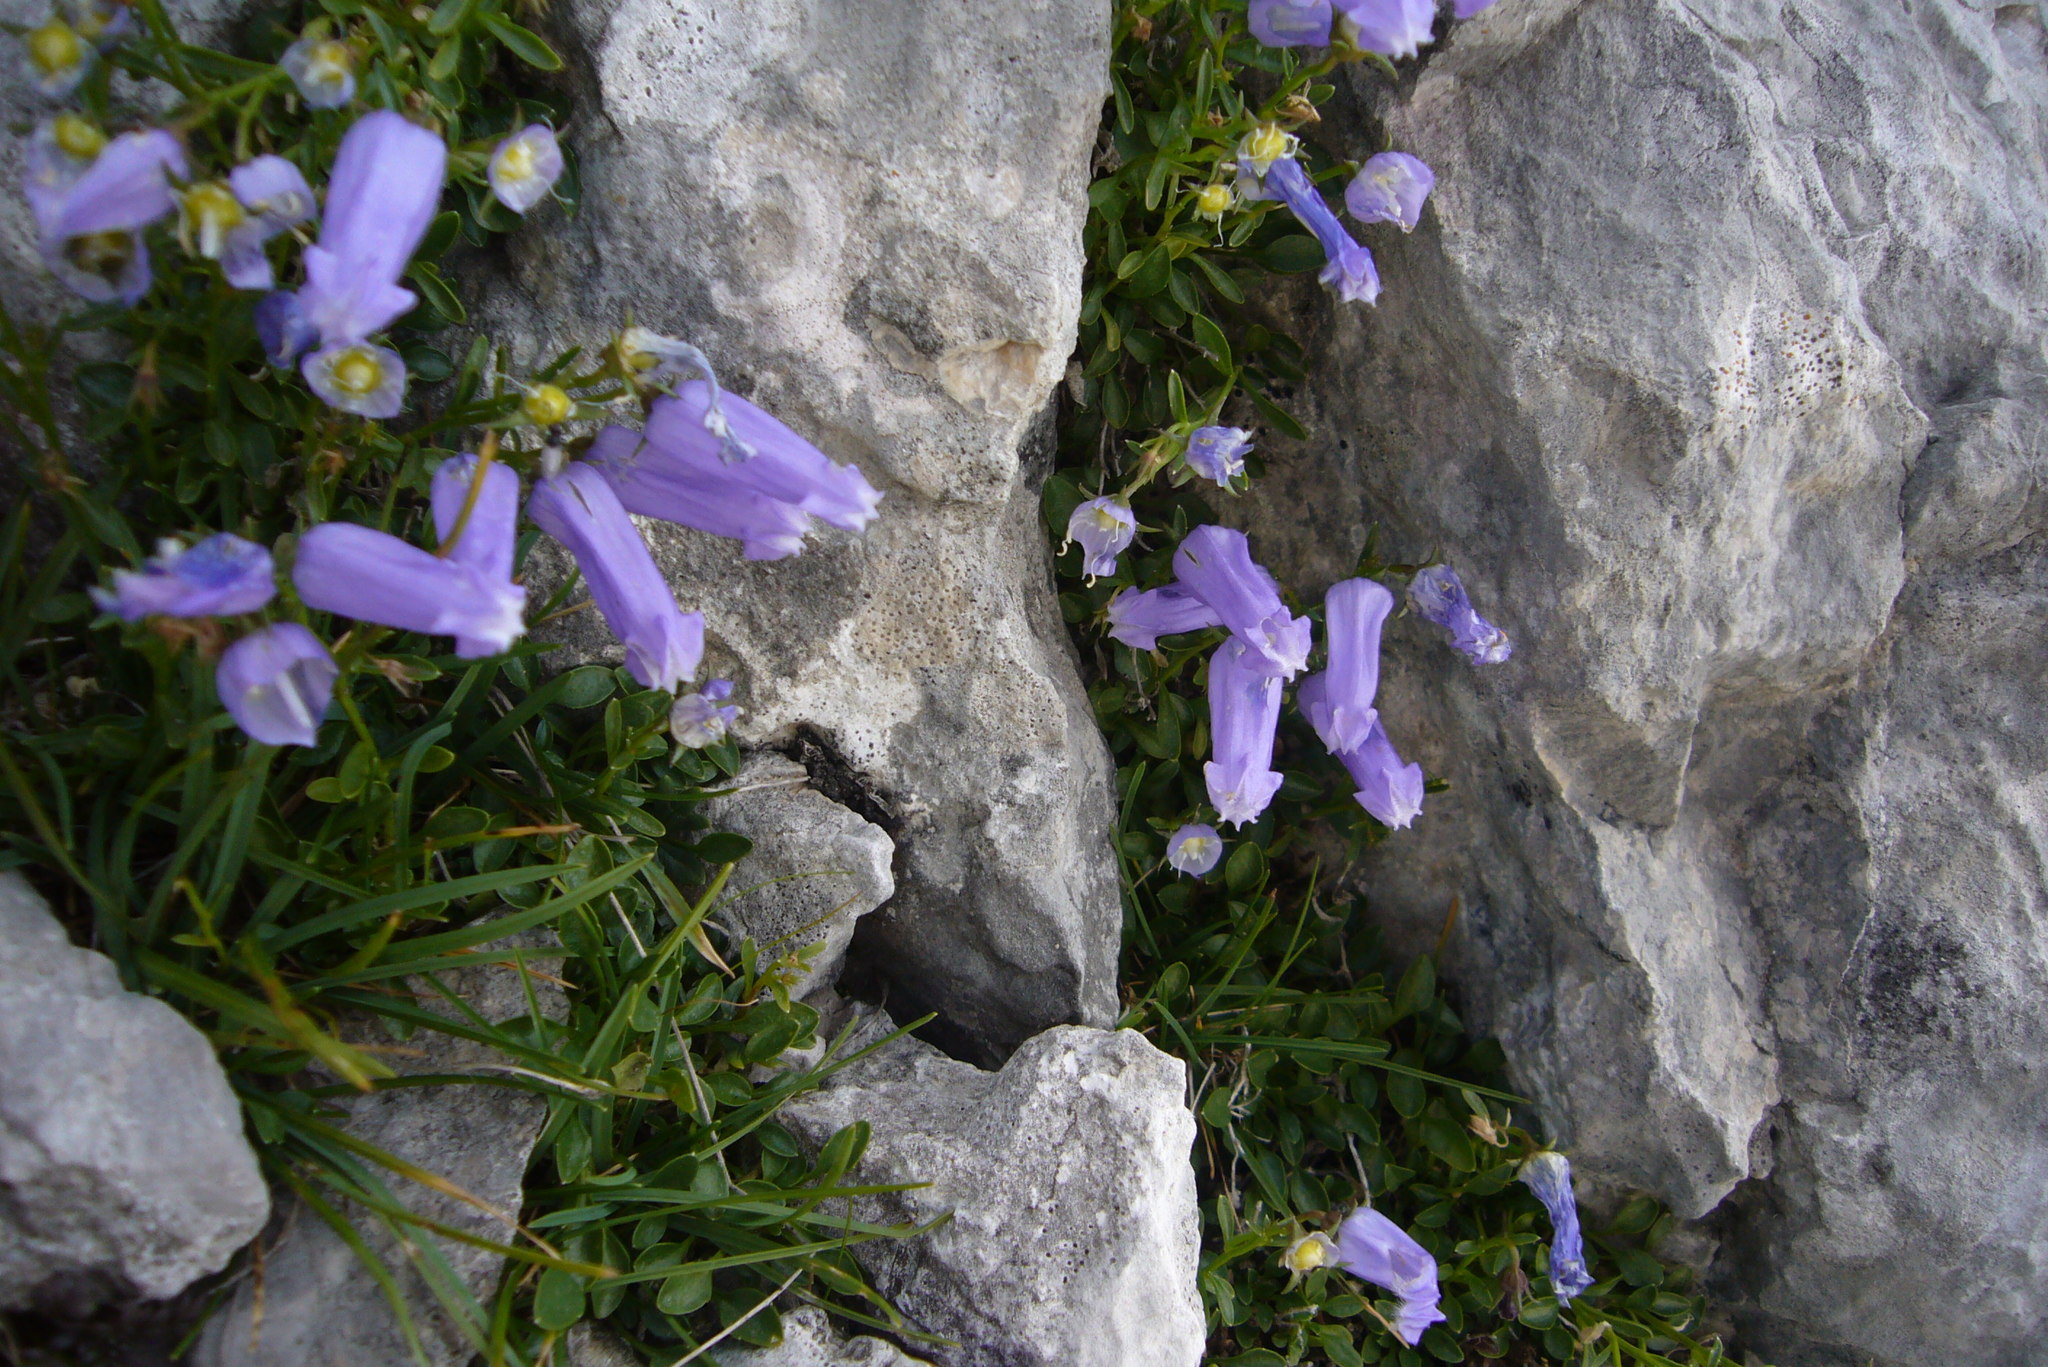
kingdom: Plantae
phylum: Tracheophyta
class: Magnoliopsida
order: Asterales
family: Campanulaceae
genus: Favratia
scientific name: Favratia zoysii
